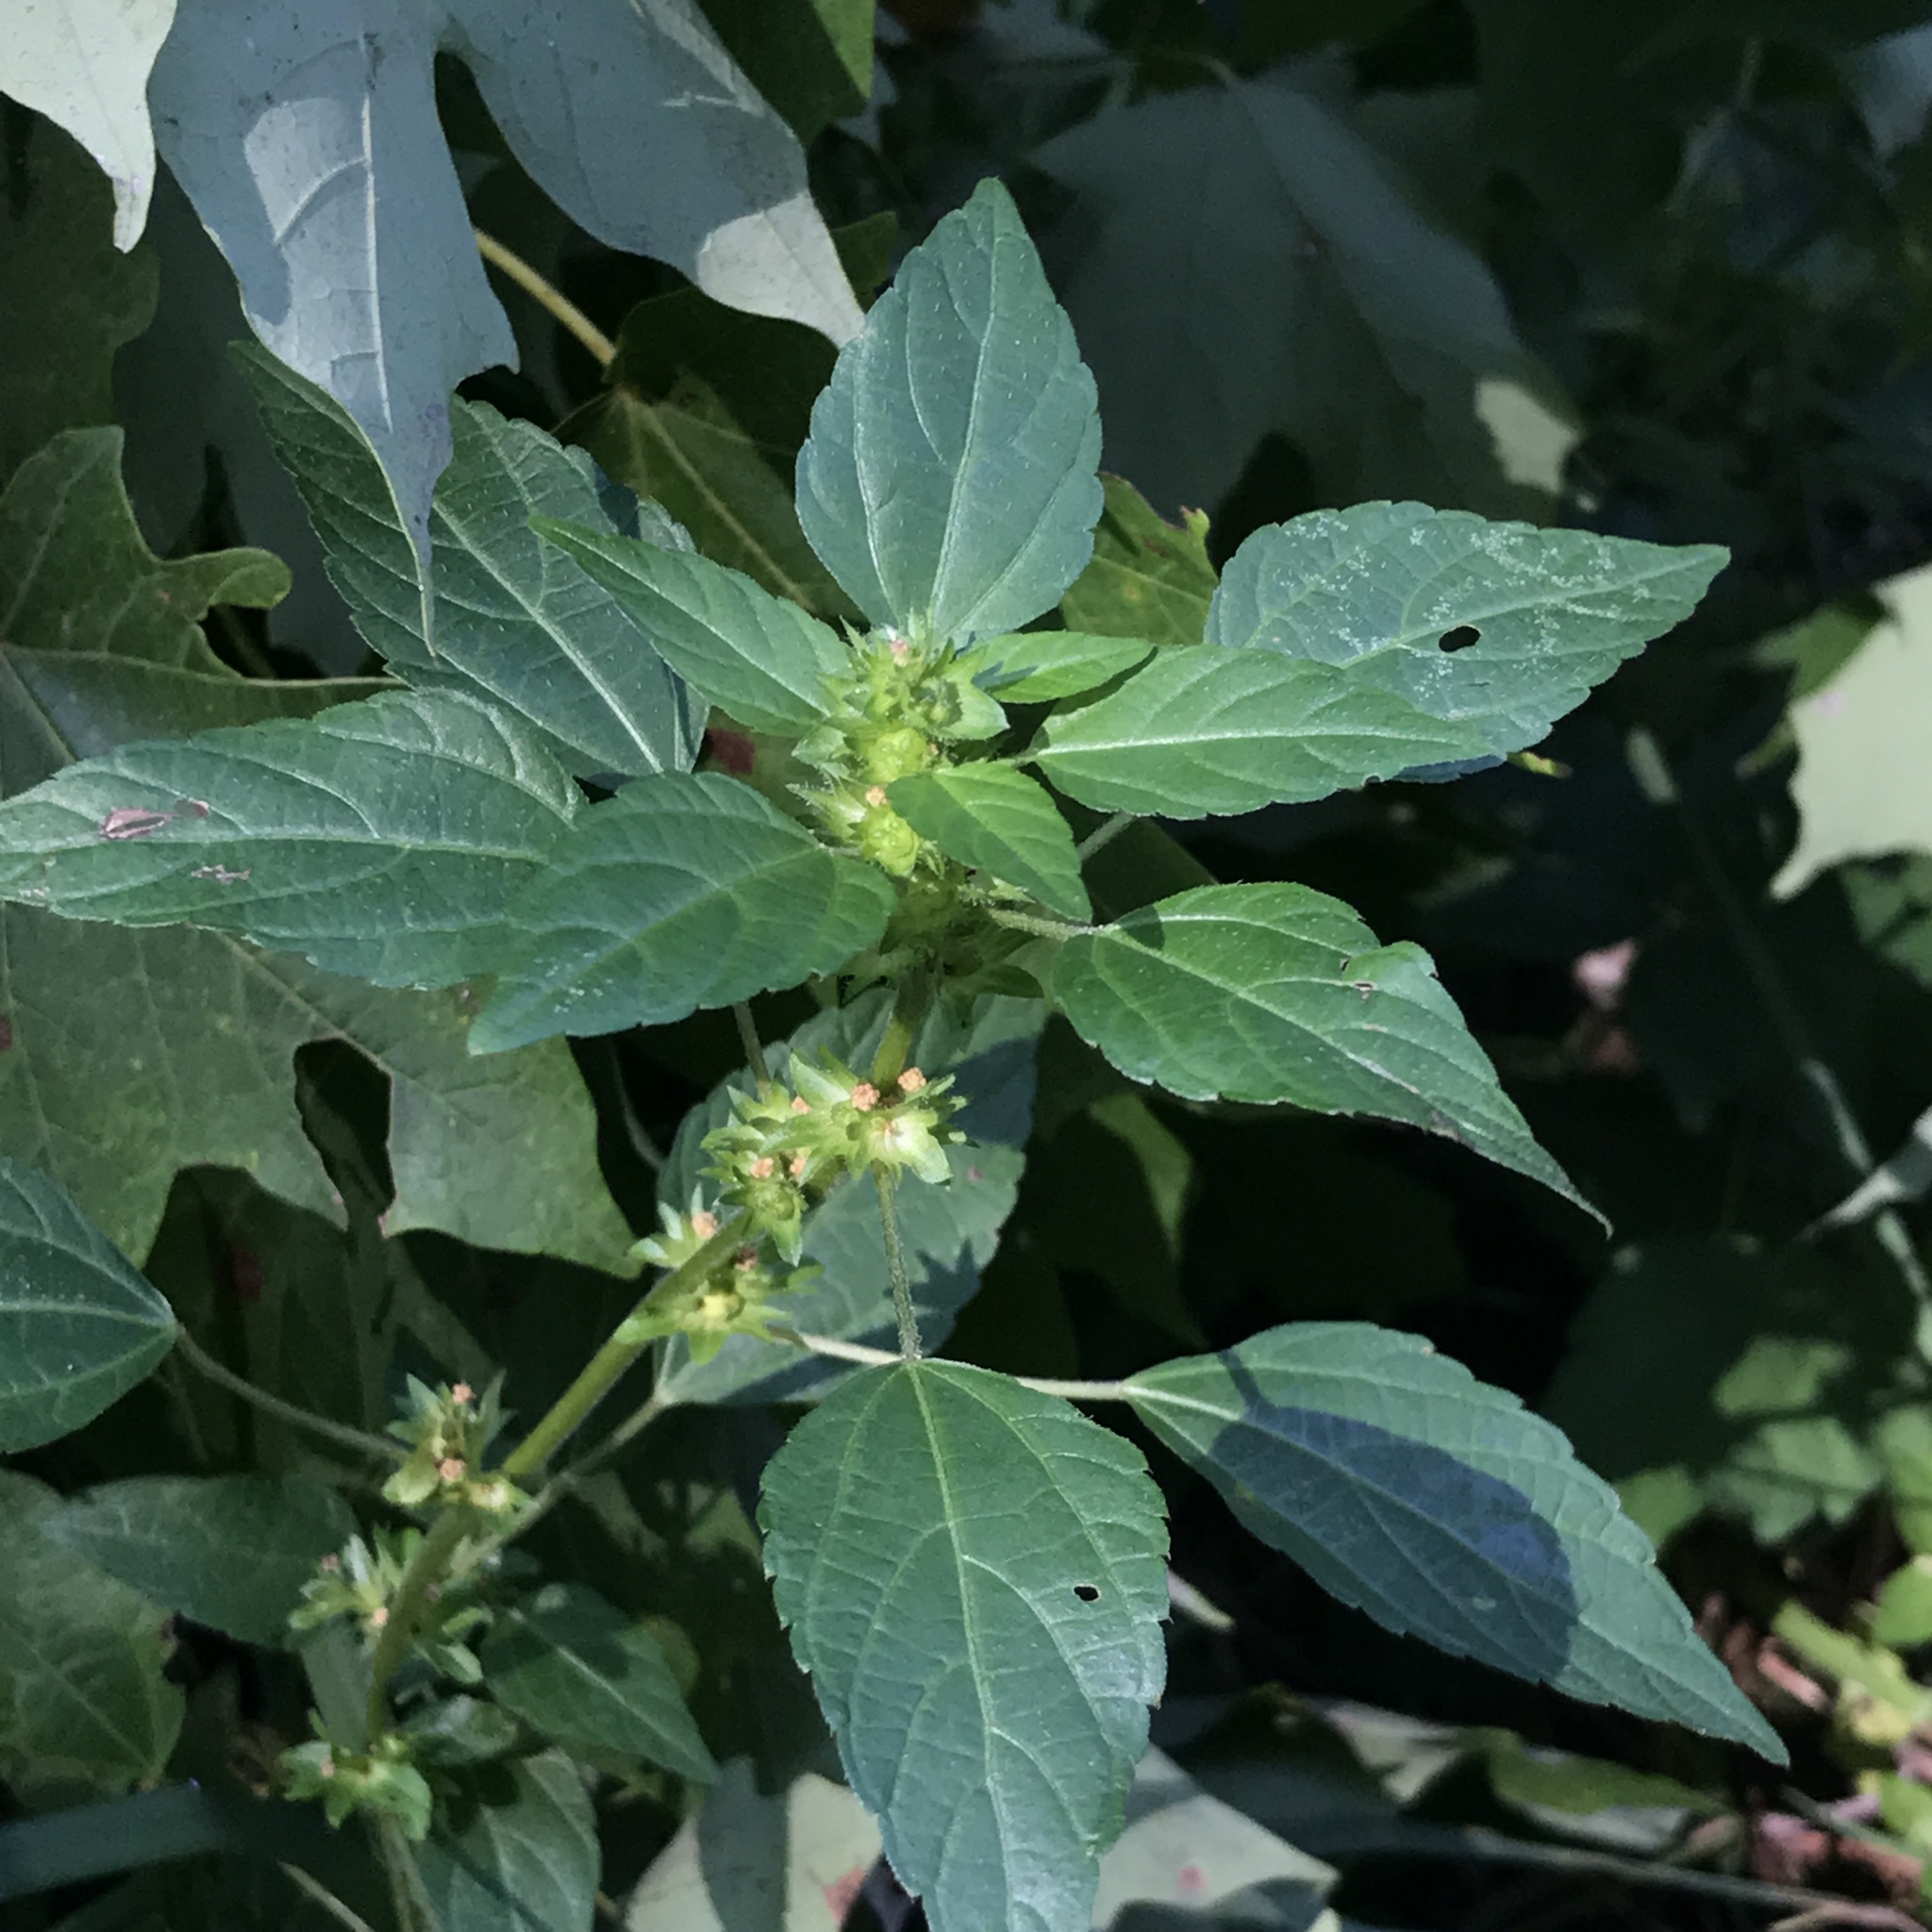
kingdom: Plantae
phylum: Tracheophyta
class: Magnoliopsida
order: Malpighiales
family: Euphorbiaceae
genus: Acalypha
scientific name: Acalypha rhomboidea
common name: Rhombic copperleaf
